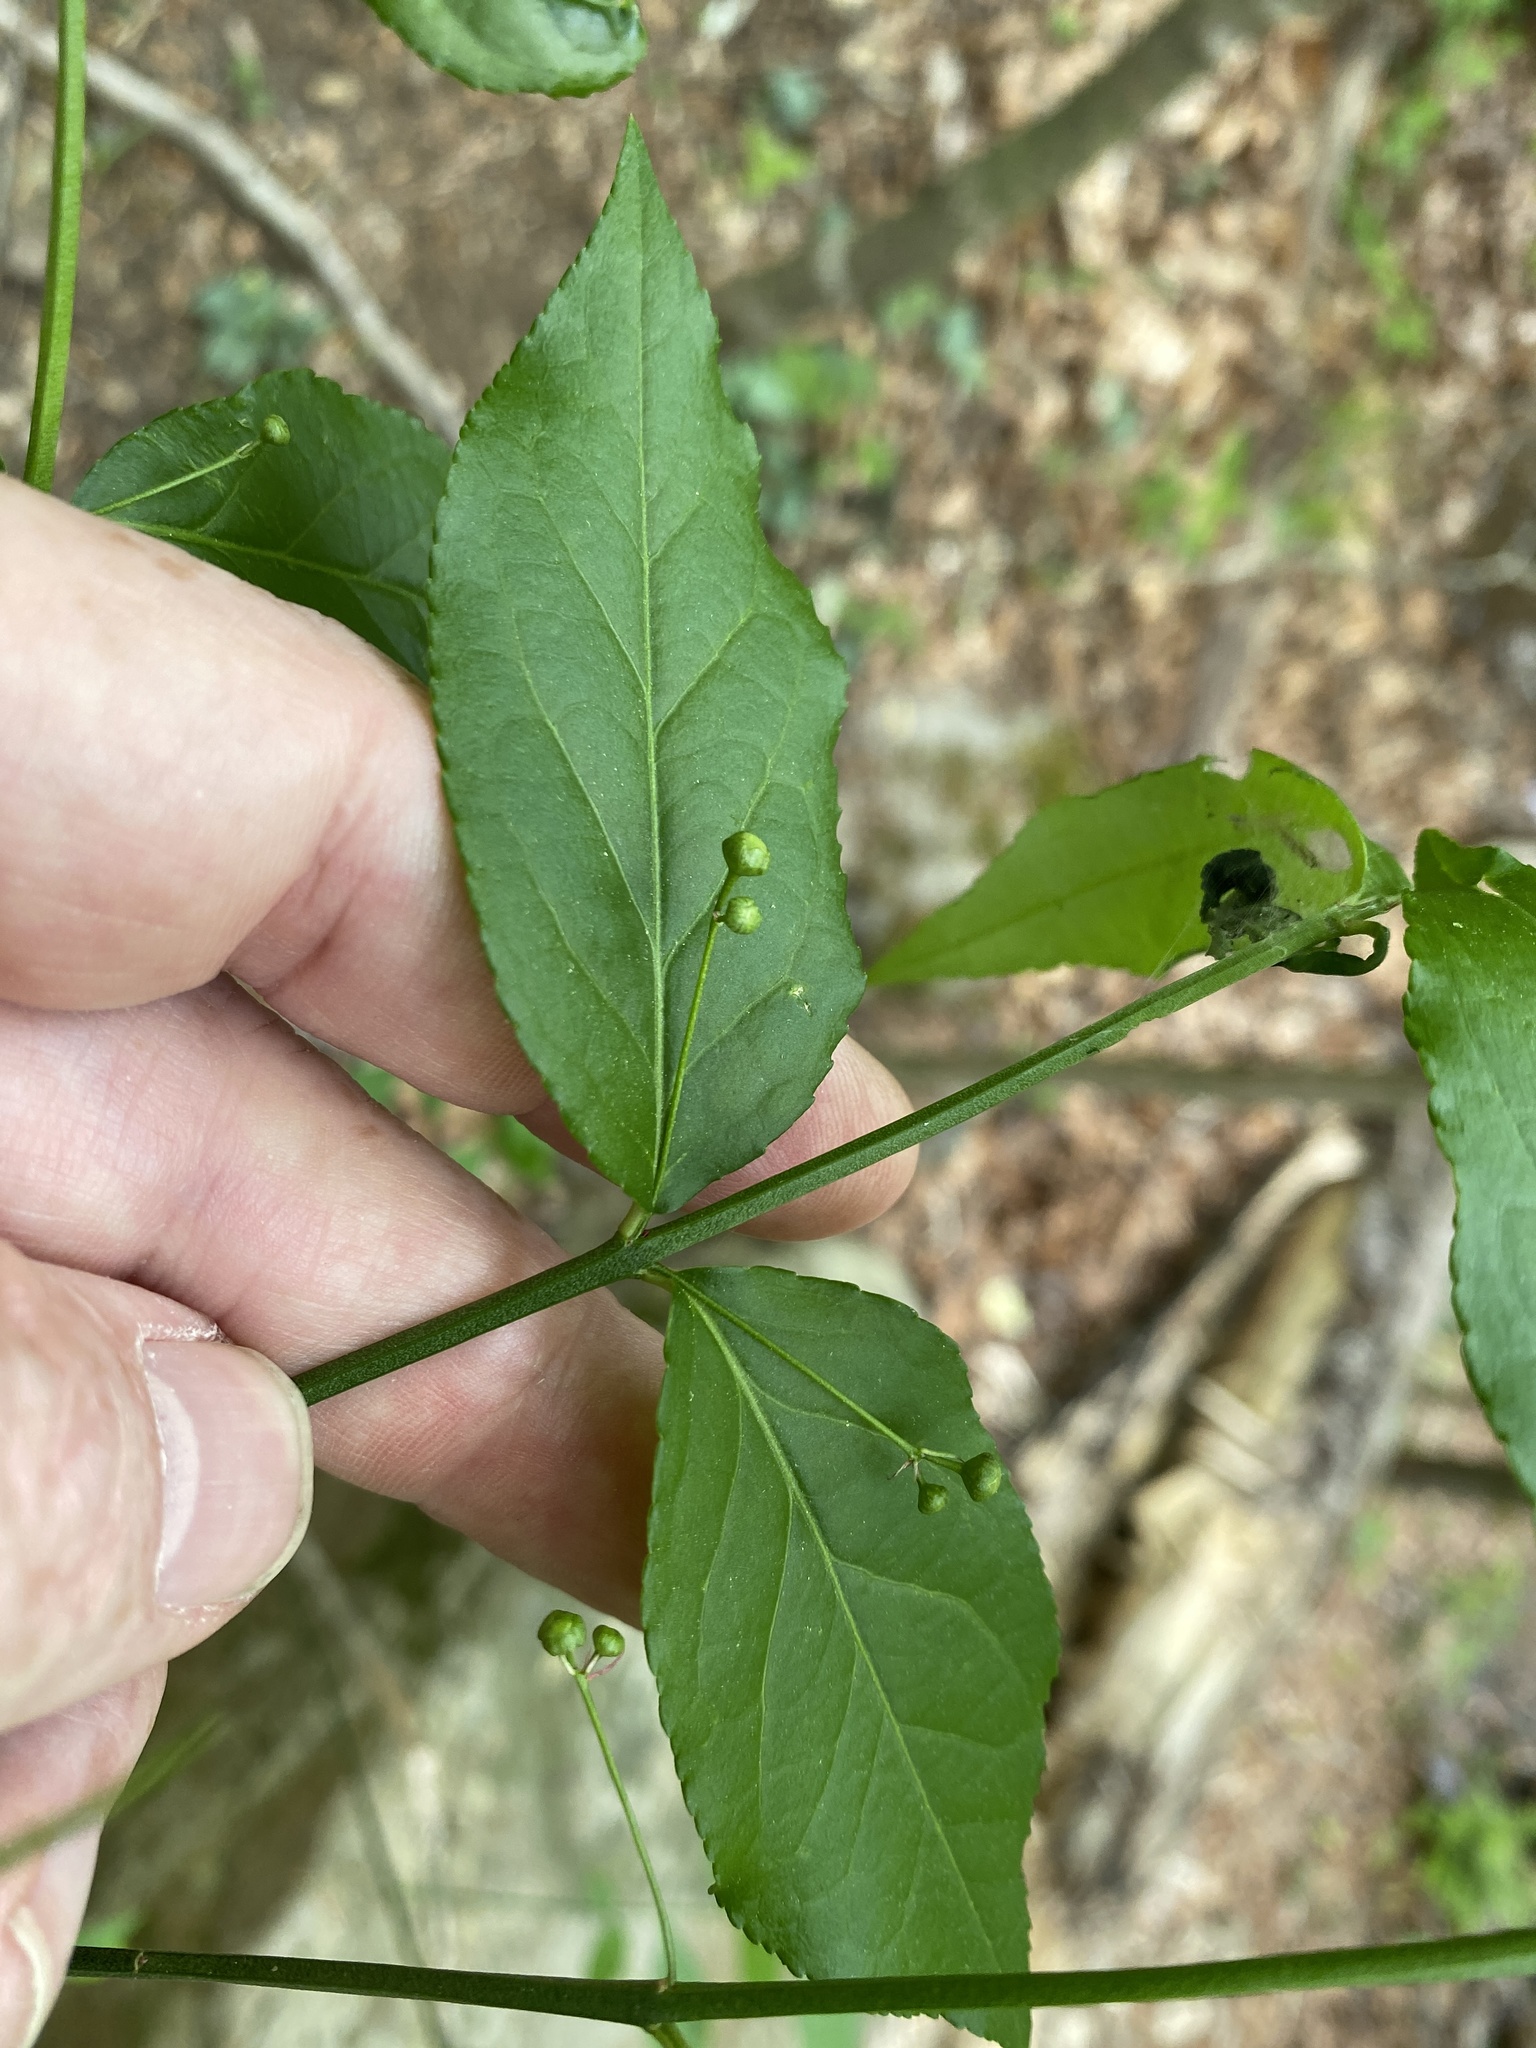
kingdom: Plantae
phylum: Tracheophyta
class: Magnoliopsida
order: Celastrales
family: Celastraceae
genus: Euonymus
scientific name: Euonymus americanus
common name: Bursting-heart
